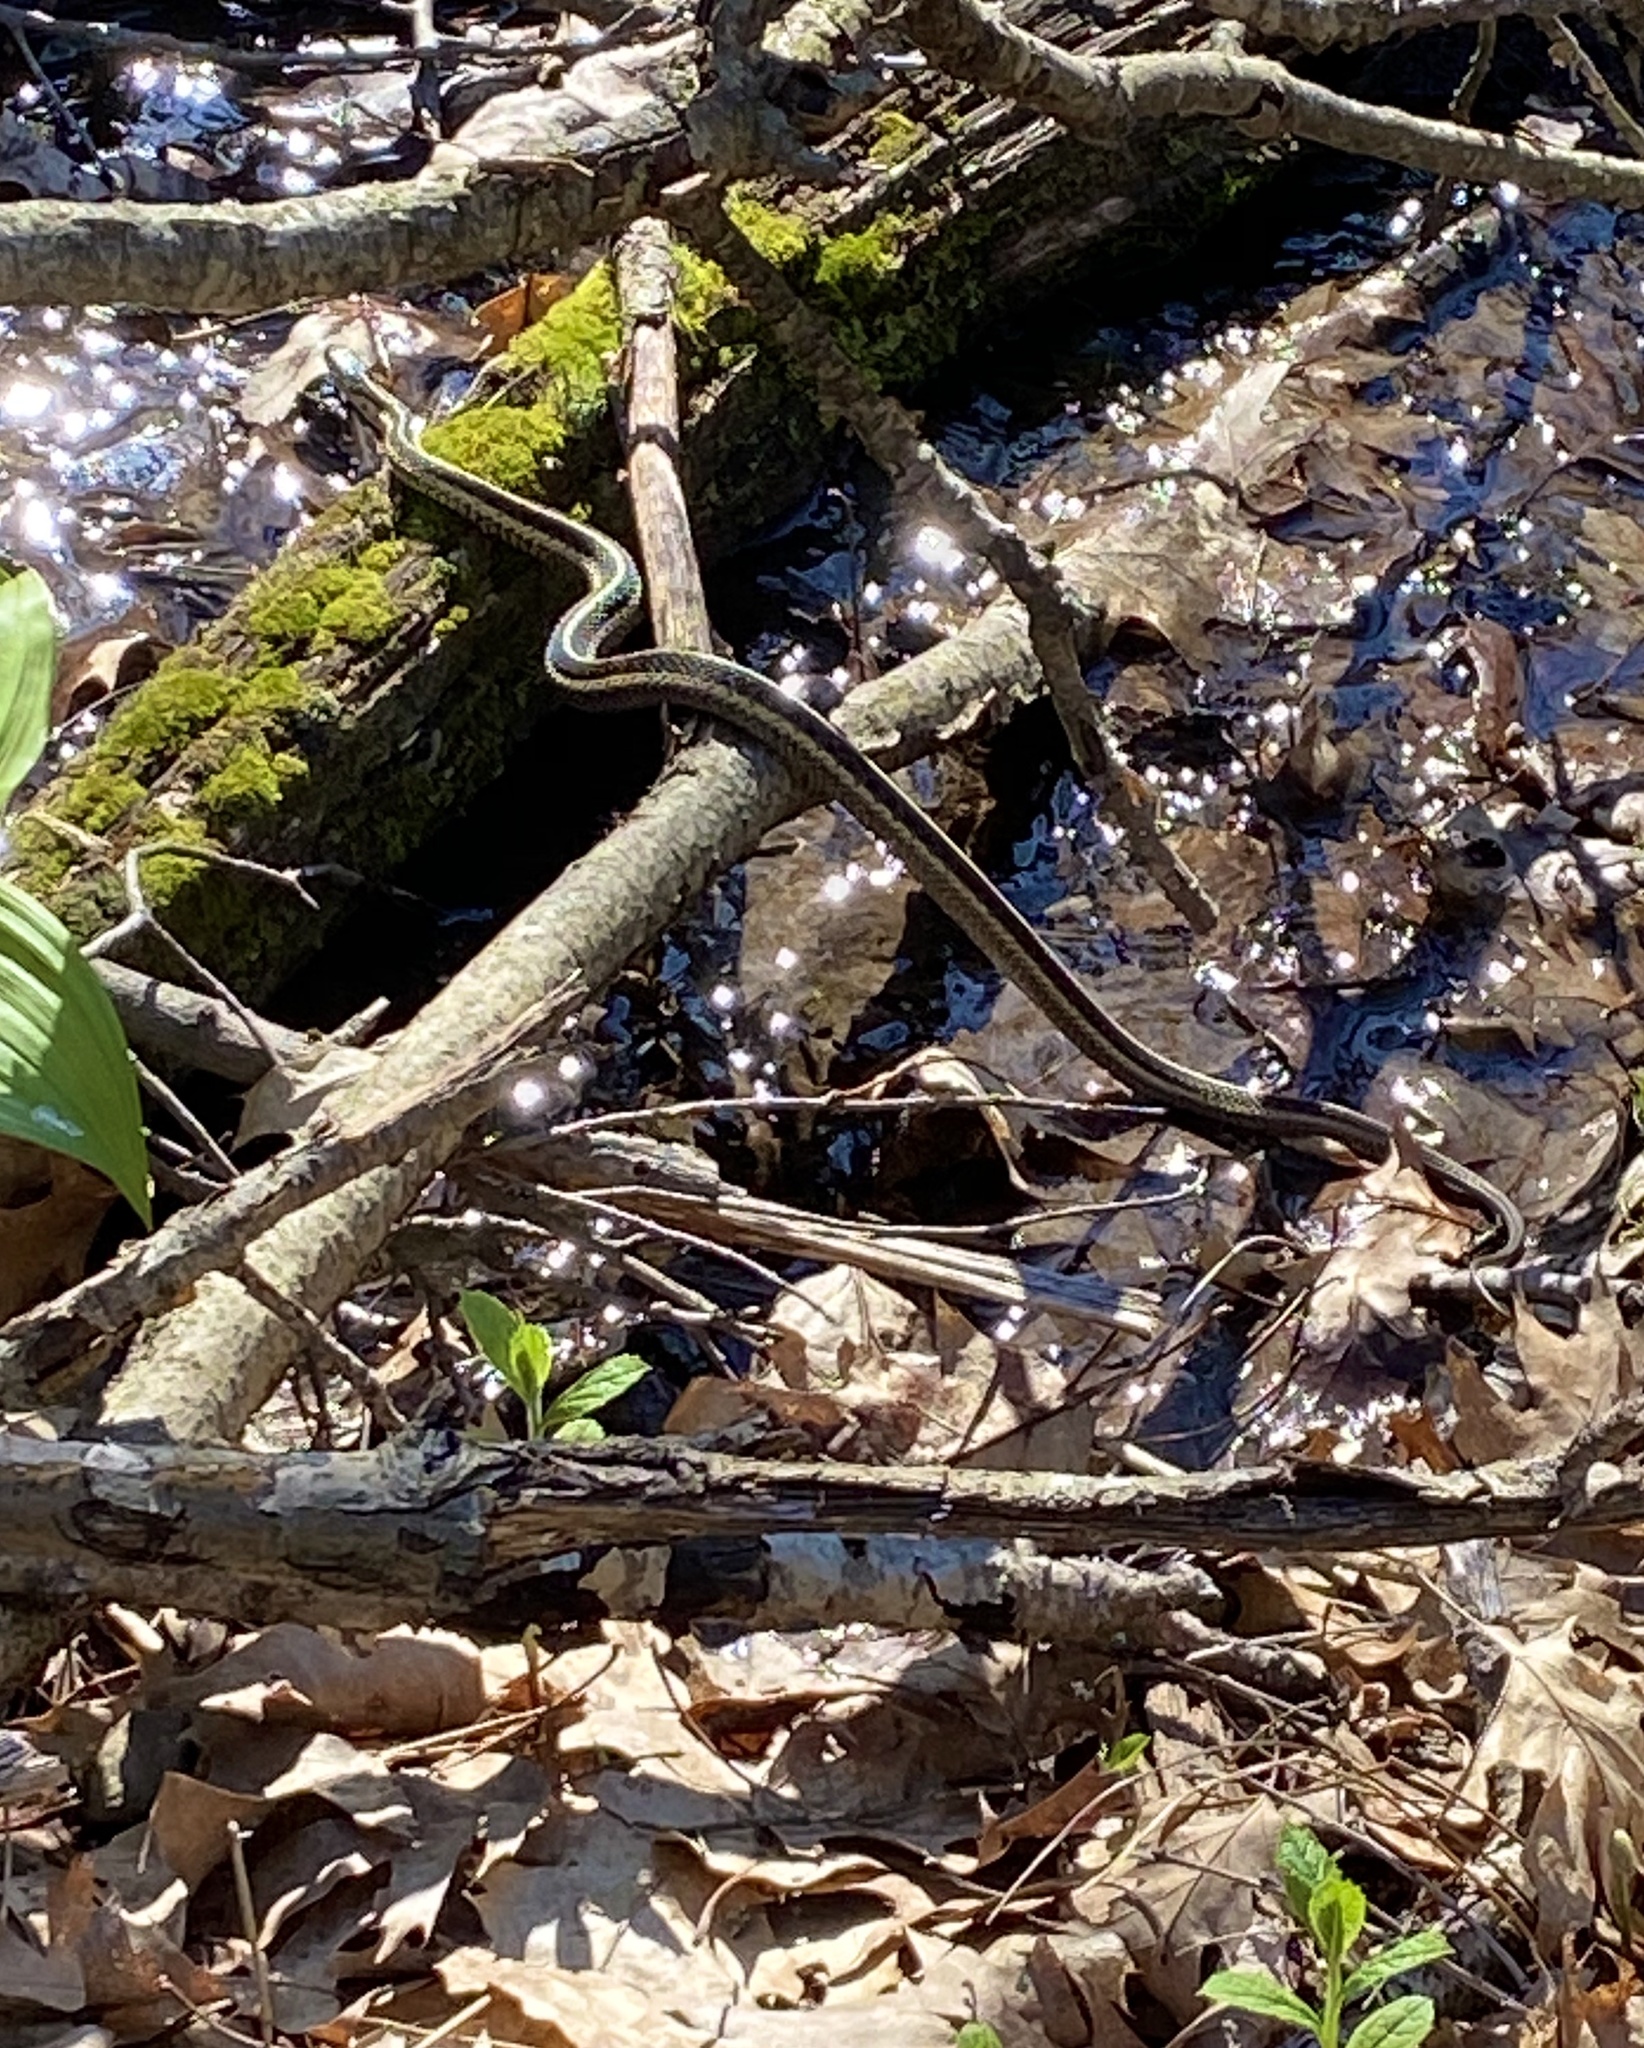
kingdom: Animalia
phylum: Chordata
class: Squamata
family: Colubridae
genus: Thamnophis
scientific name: Thamnophis sirtalis
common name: Common garter snake
